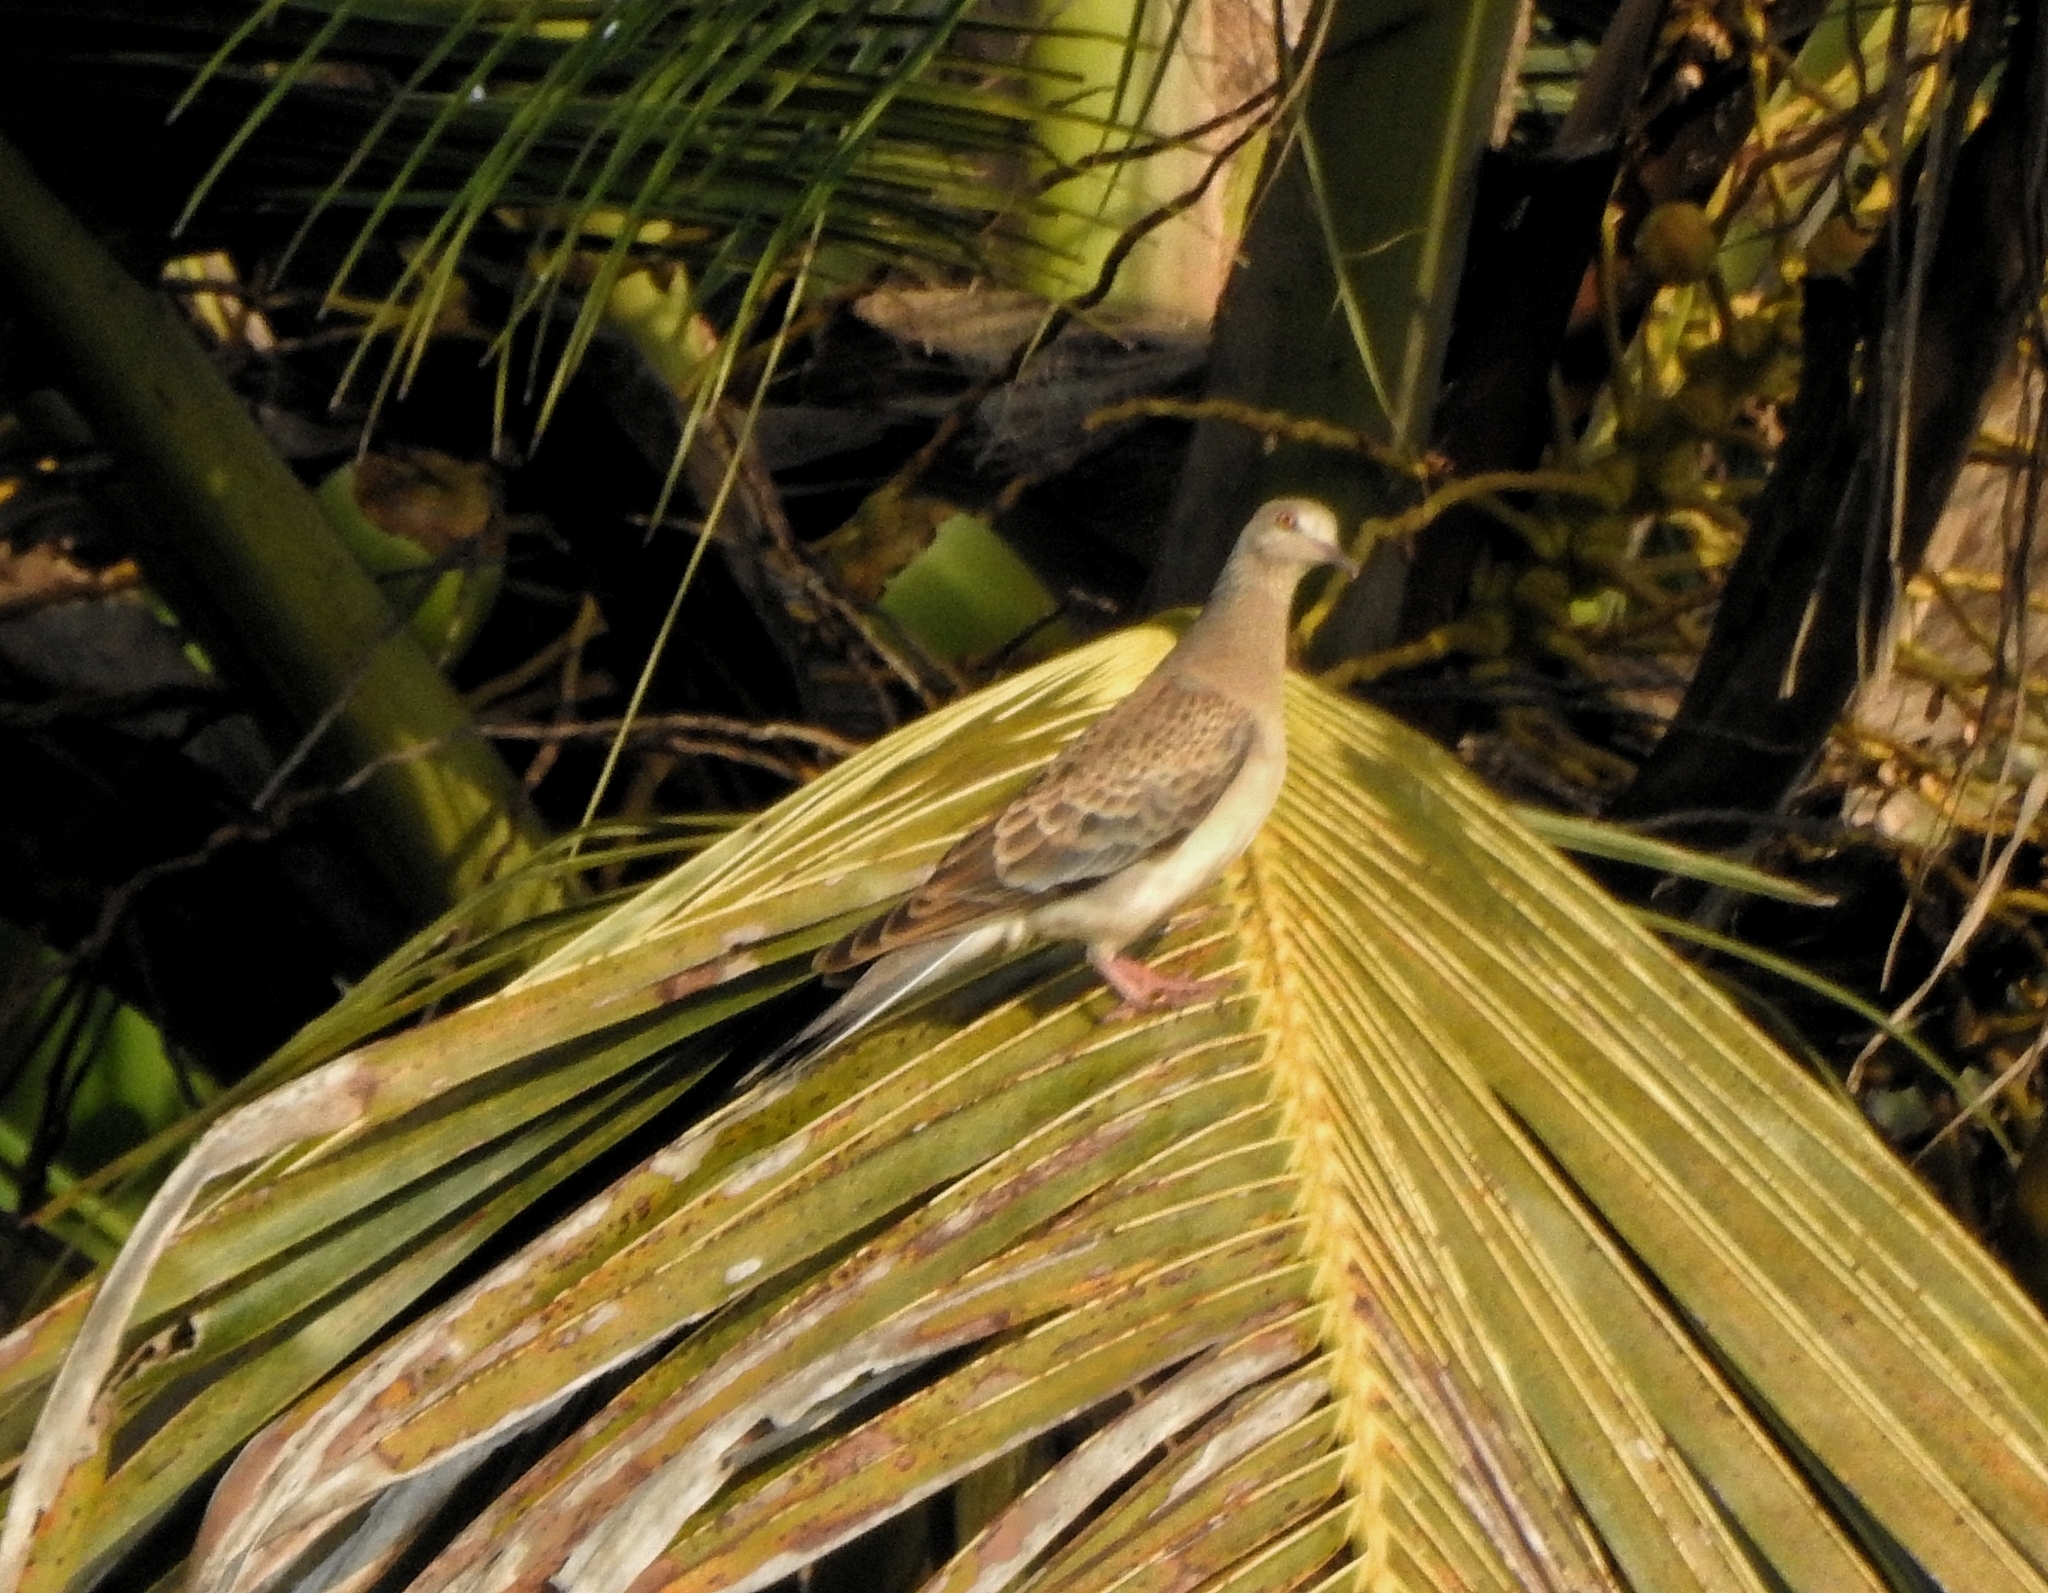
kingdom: Animalia
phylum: Chordata
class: Aves
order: Columbiformes
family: Columbidae
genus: Streptopelia
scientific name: Streptopelia orientalis
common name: Oriental turtle dove
